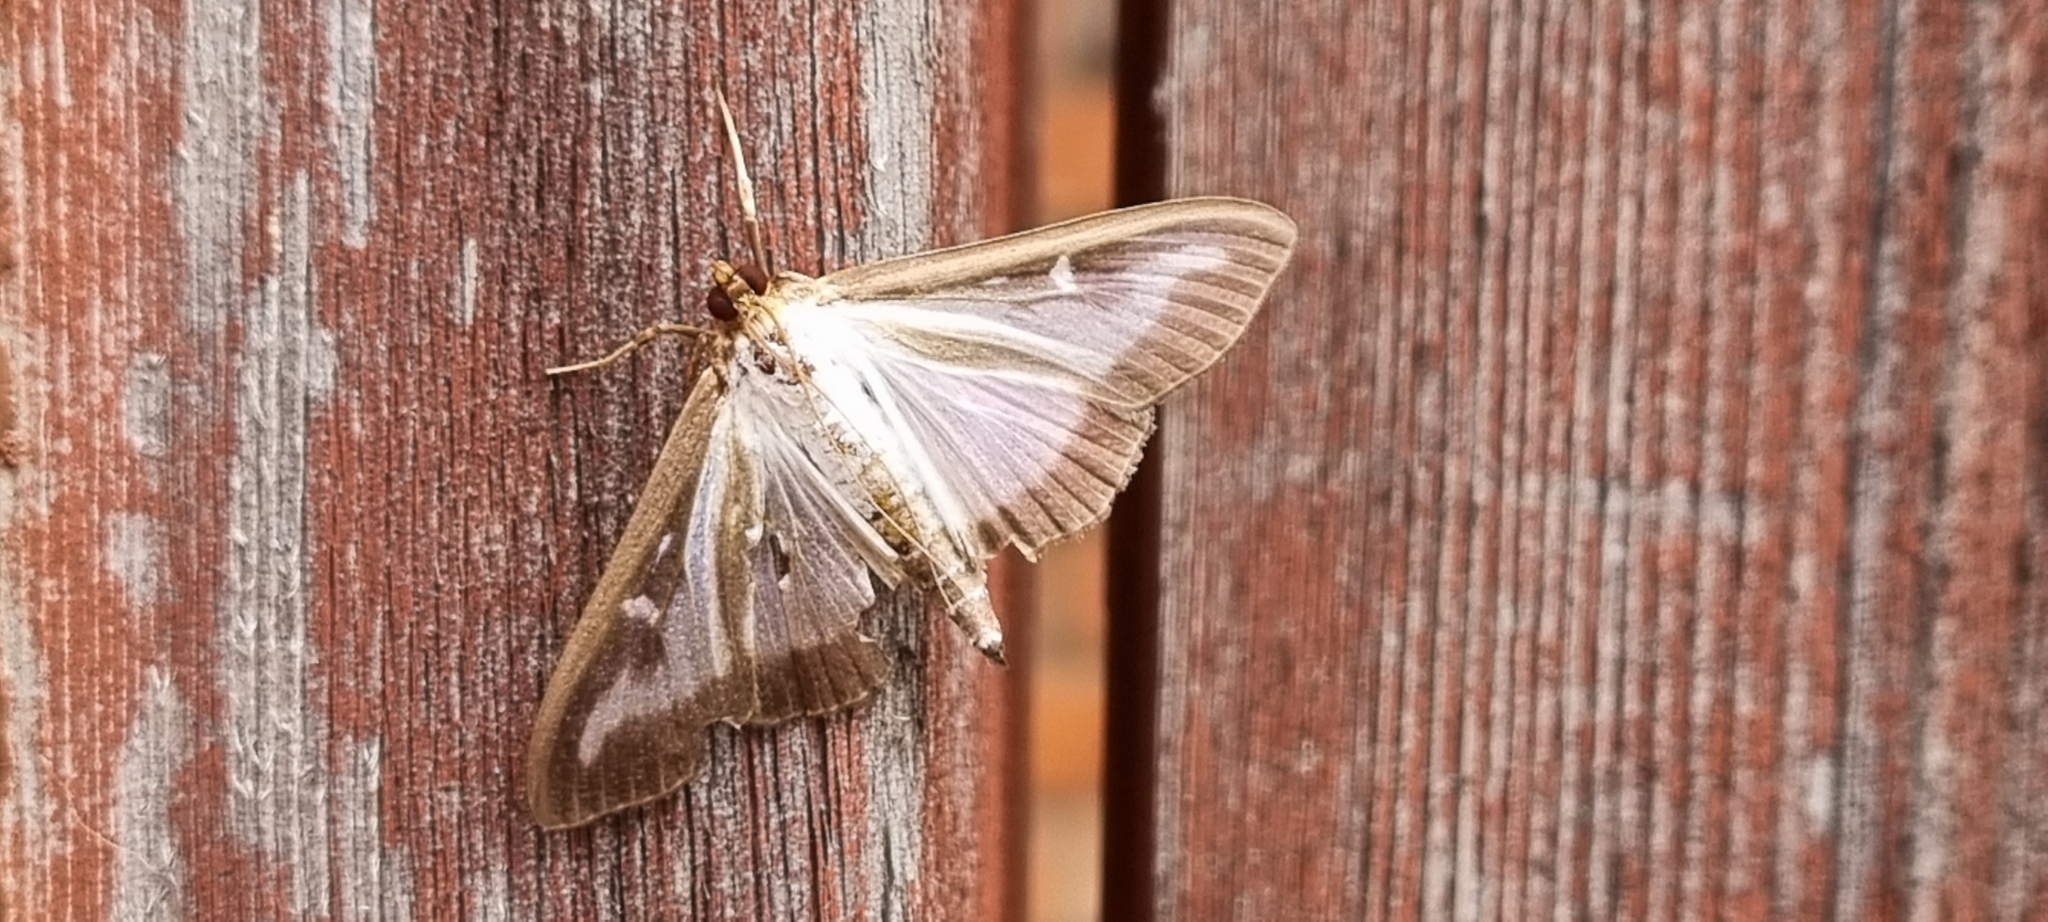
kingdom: Animalia
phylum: Arthropoda
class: Insecta
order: Lepidoptera
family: Crambidae
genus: Cydalima
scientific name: Cydalima perspectalis
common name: Box tree moth
